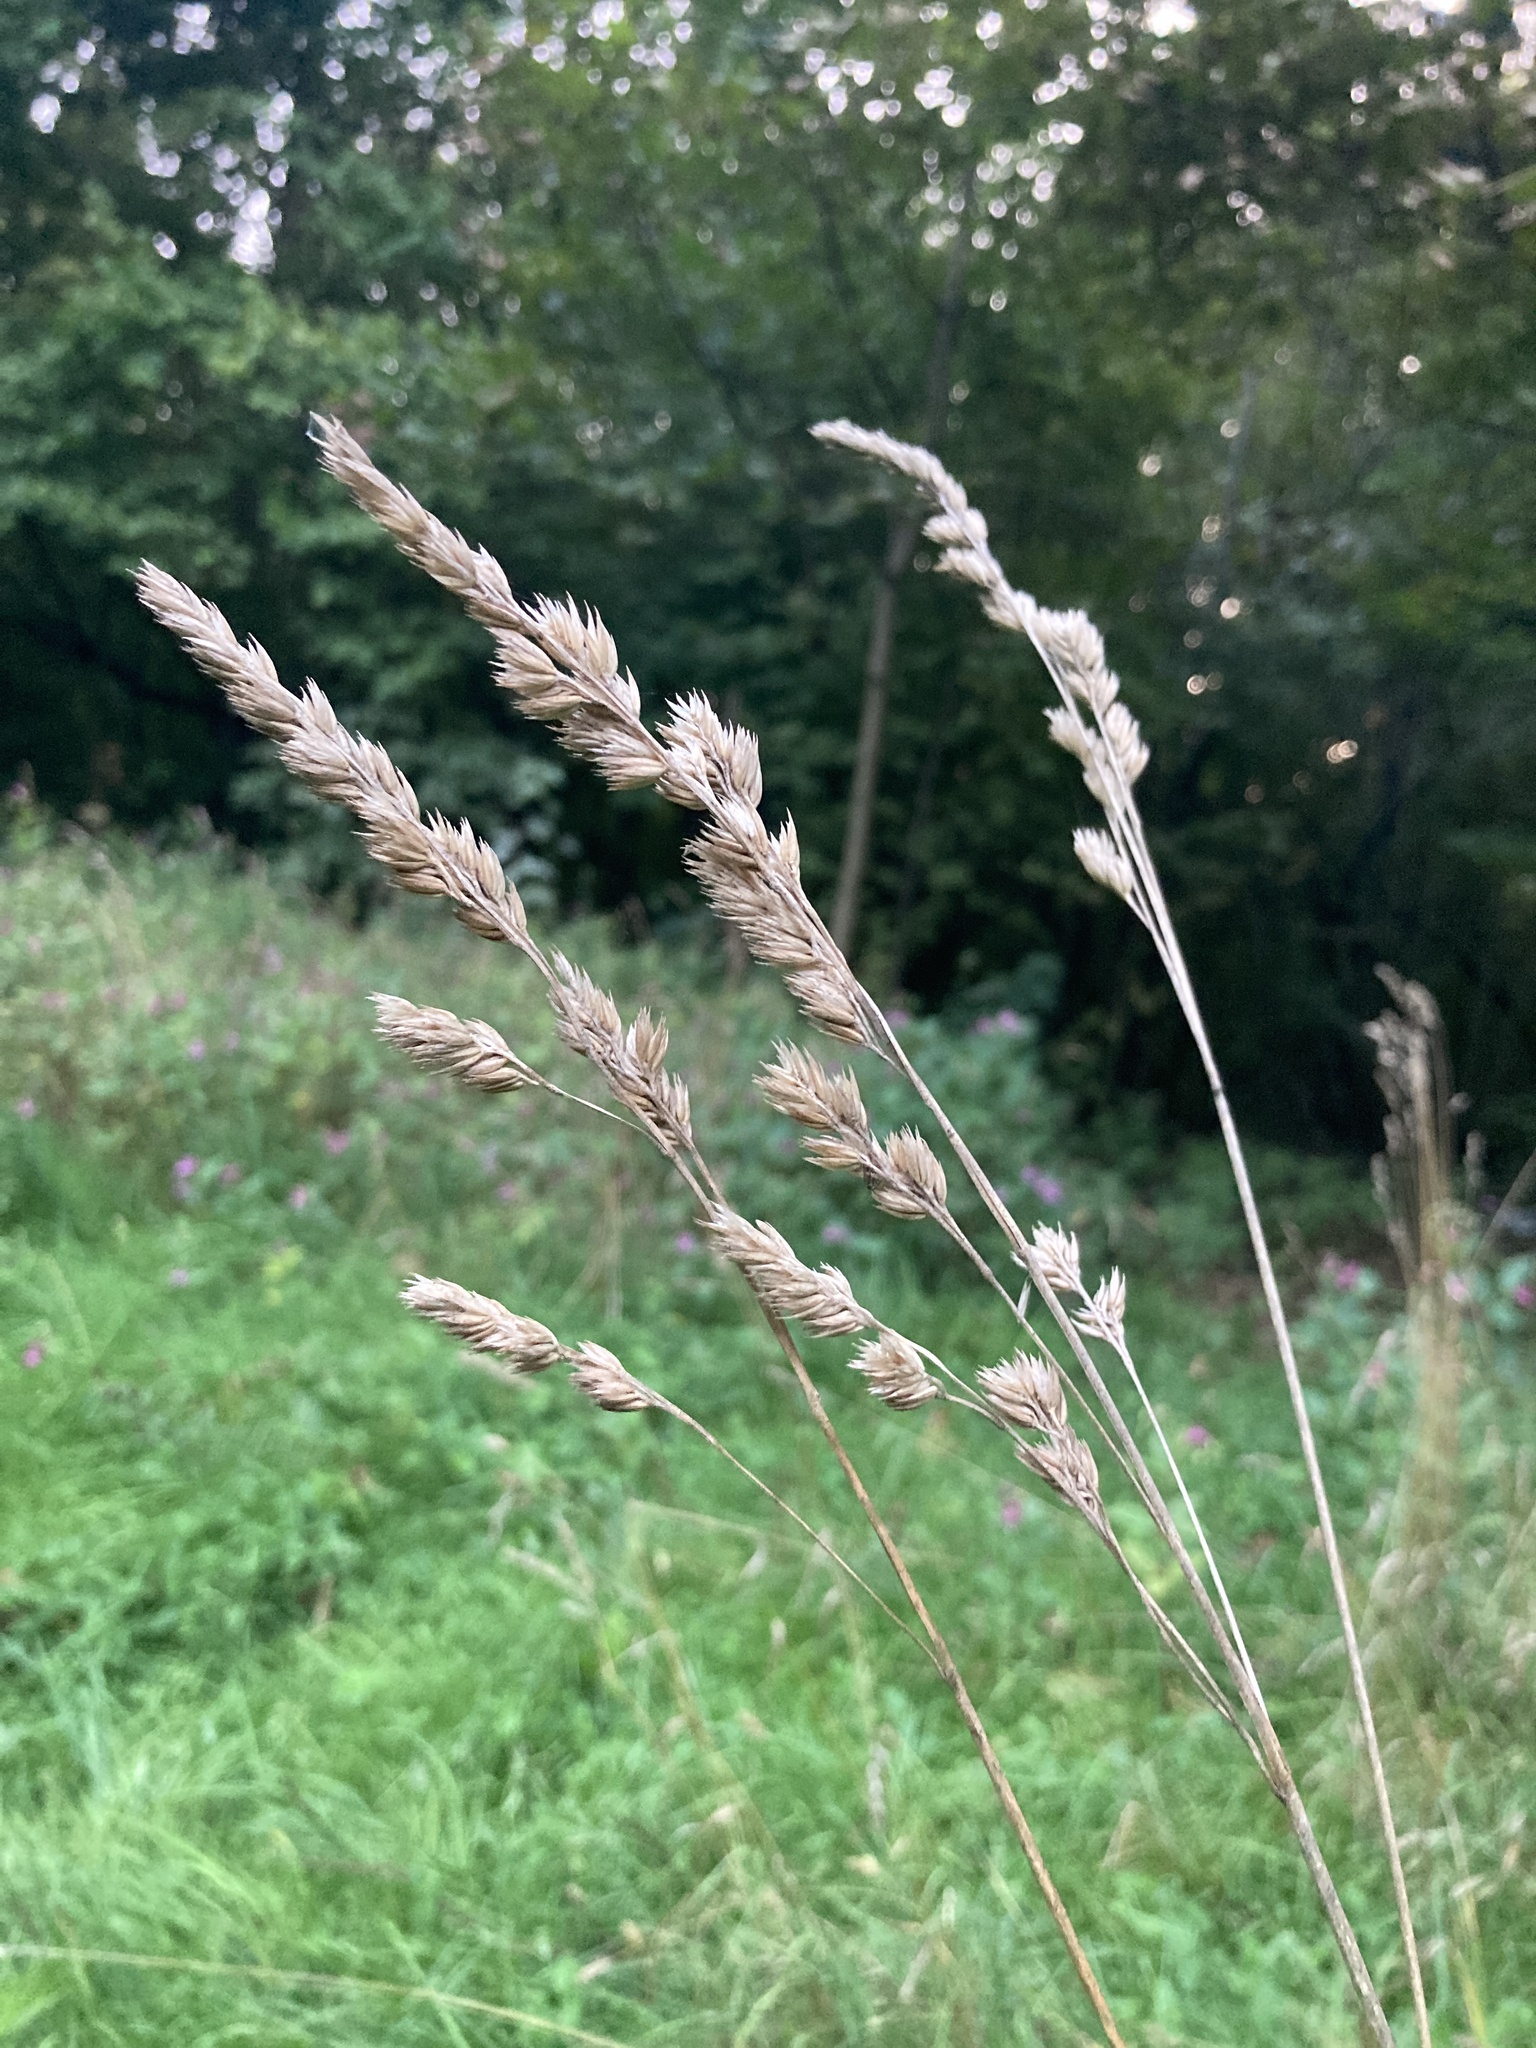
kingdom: Plantae
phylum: Tracheophyta
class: Liliopsida
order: Poales
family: Poaceae
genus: Dactylis
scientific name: Dactylis glomerata
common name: Orchardgrass
